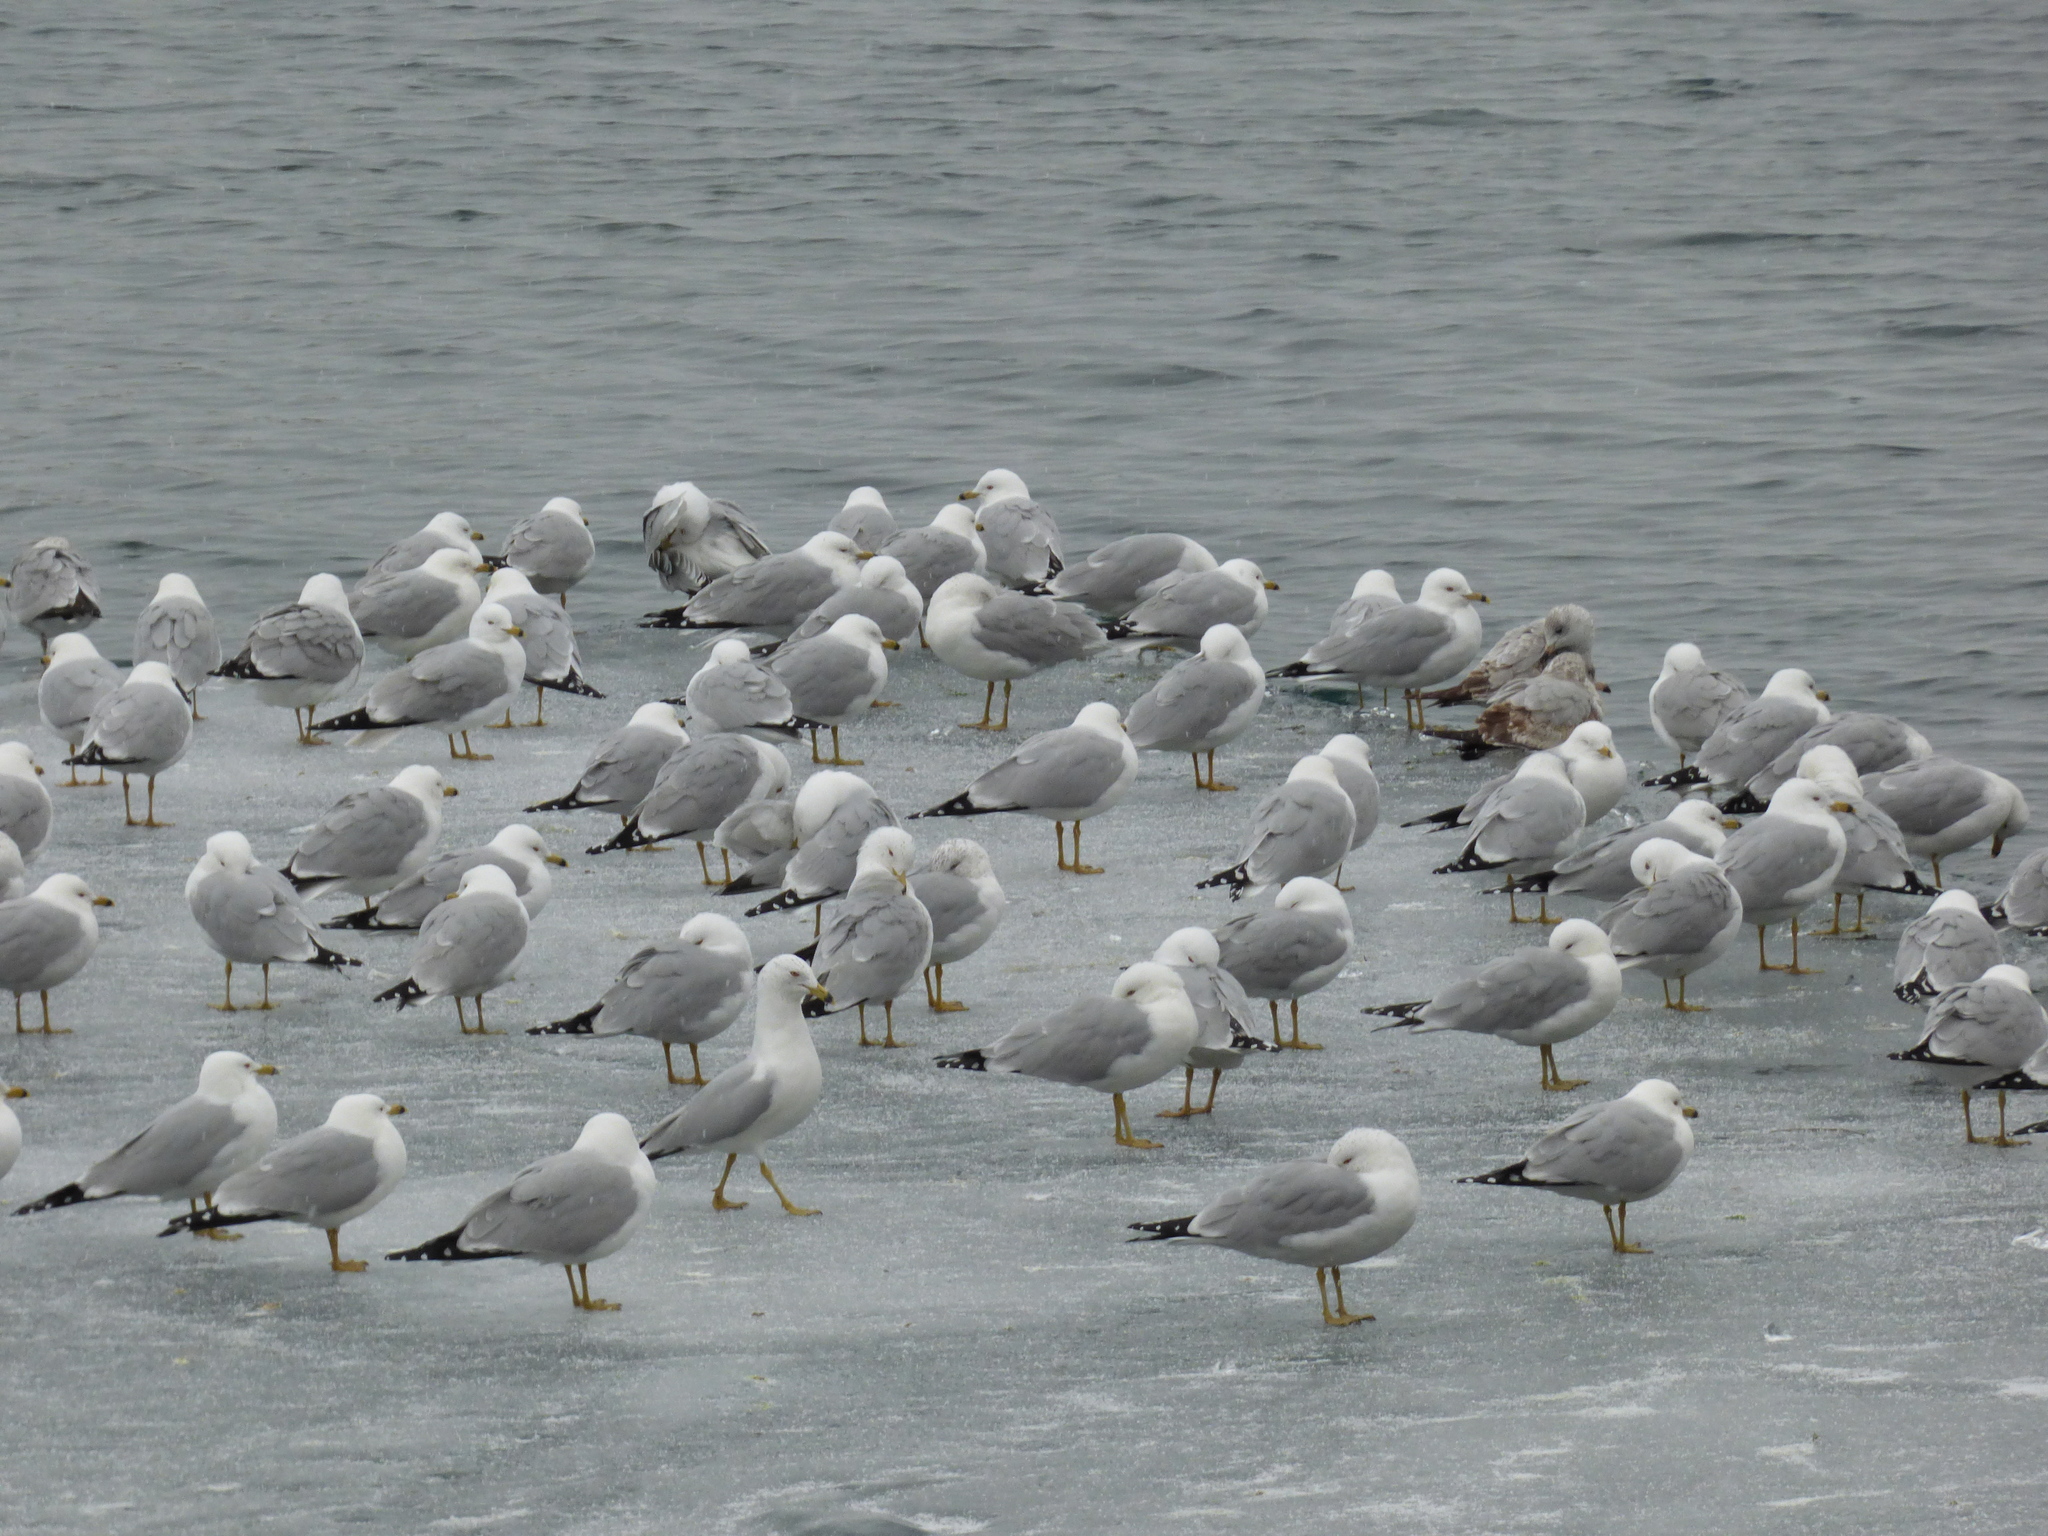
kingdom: Animalia
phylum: Chordata
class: Aves
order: Charadriiformes
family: Laridae
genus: Larus
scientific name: Larus delawarensis
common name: Ring-billed gull
